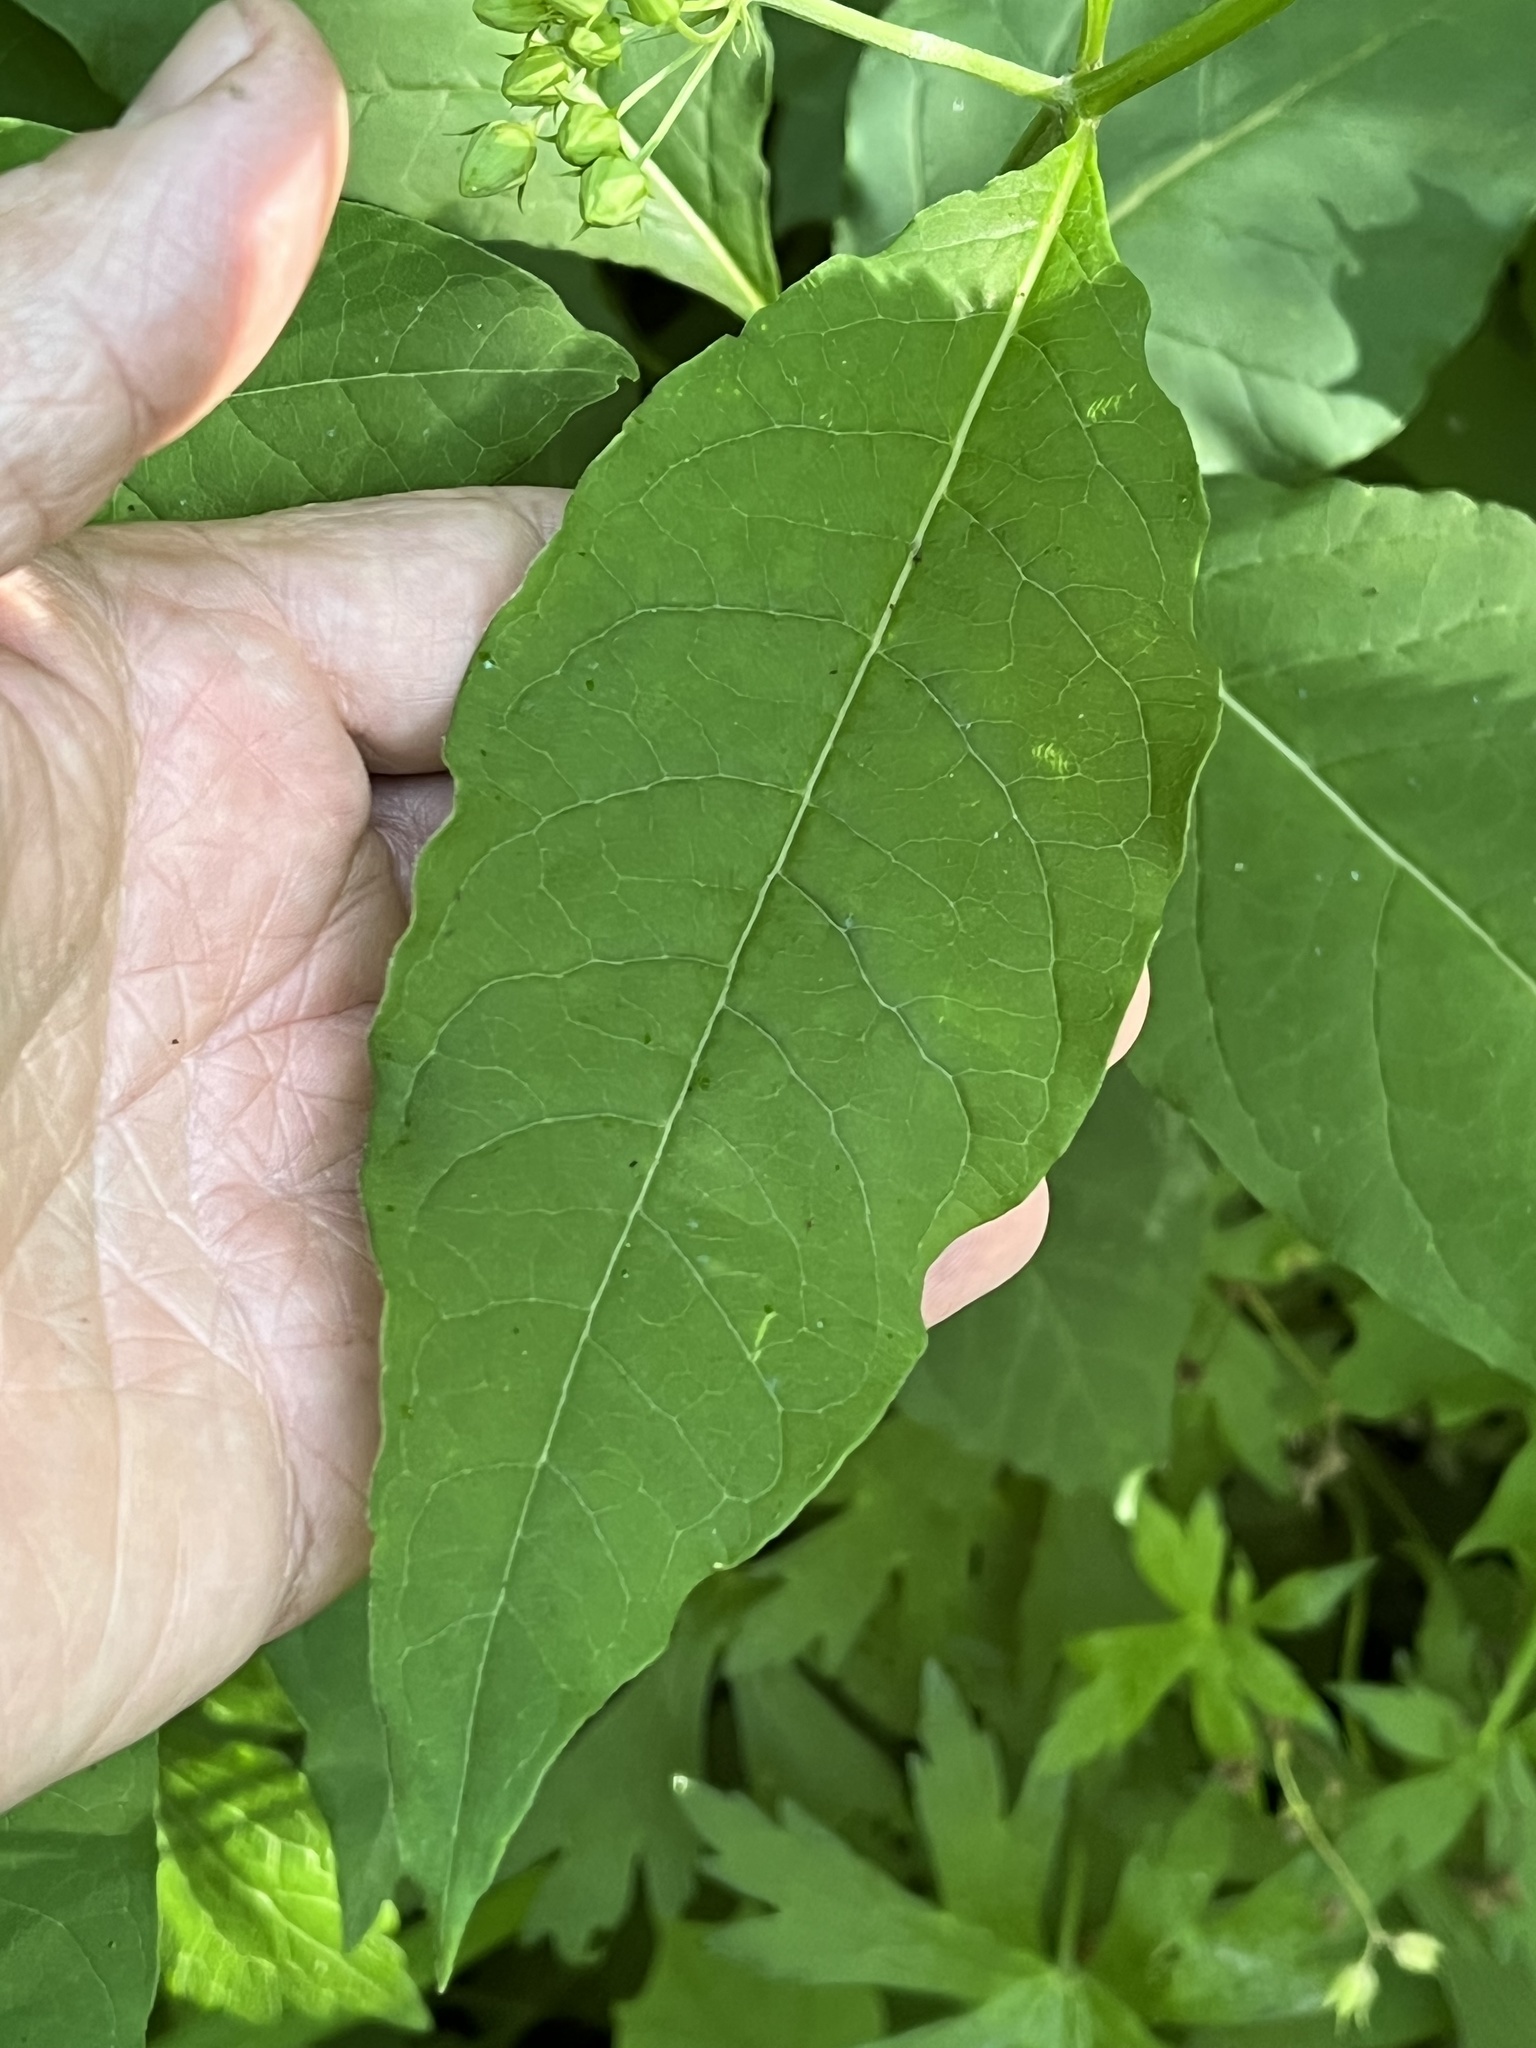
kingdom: Plantae
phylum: Tracheophyta
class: Magnoliopsida
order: Gentianales
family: Apocynaceae
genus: Asclepias
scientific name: Asclepias exaltata
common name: Poke milkweed
